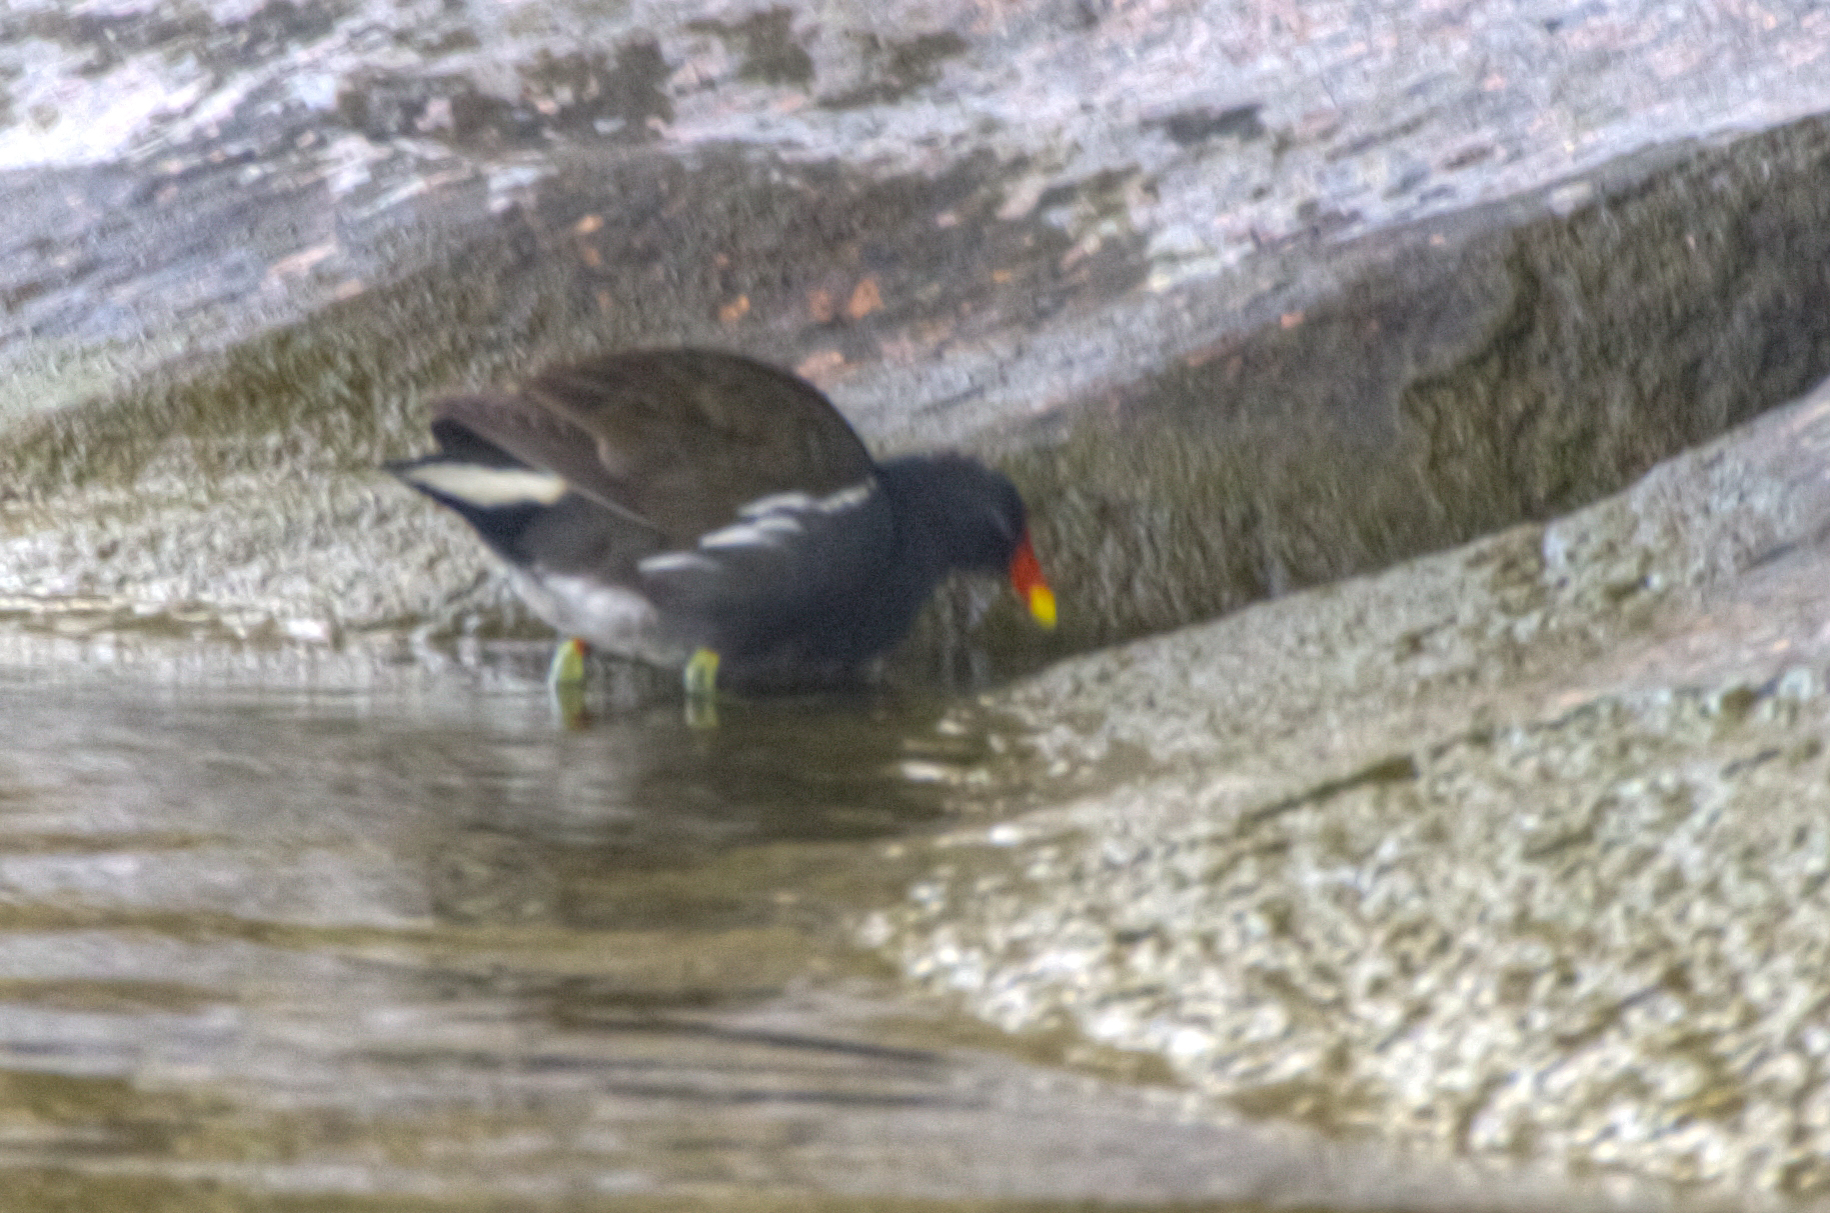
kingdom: Animalia
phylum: Chordata
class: Aves
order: Gruiformes
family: Rallidae
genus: Gallinula
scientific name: Gallinula chloropus
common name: Common moorhen
